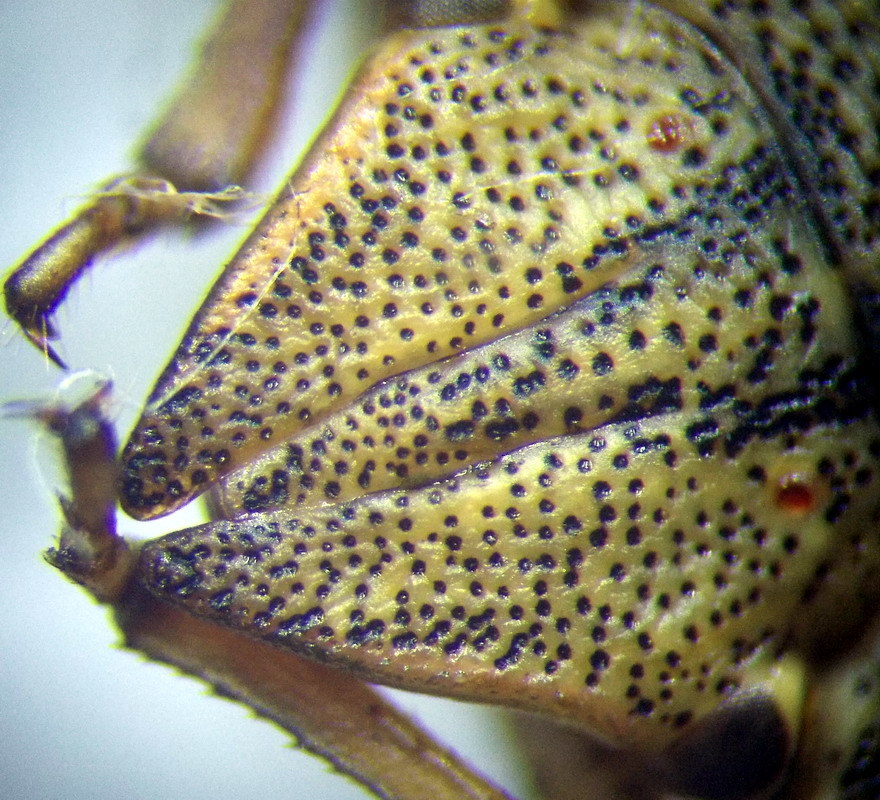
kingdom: Animalia
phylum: Arthropoda
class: Insecta
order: Hemiptera
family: Scutelleridae
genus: Eurygaster
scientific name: Eurygaster austriaca
